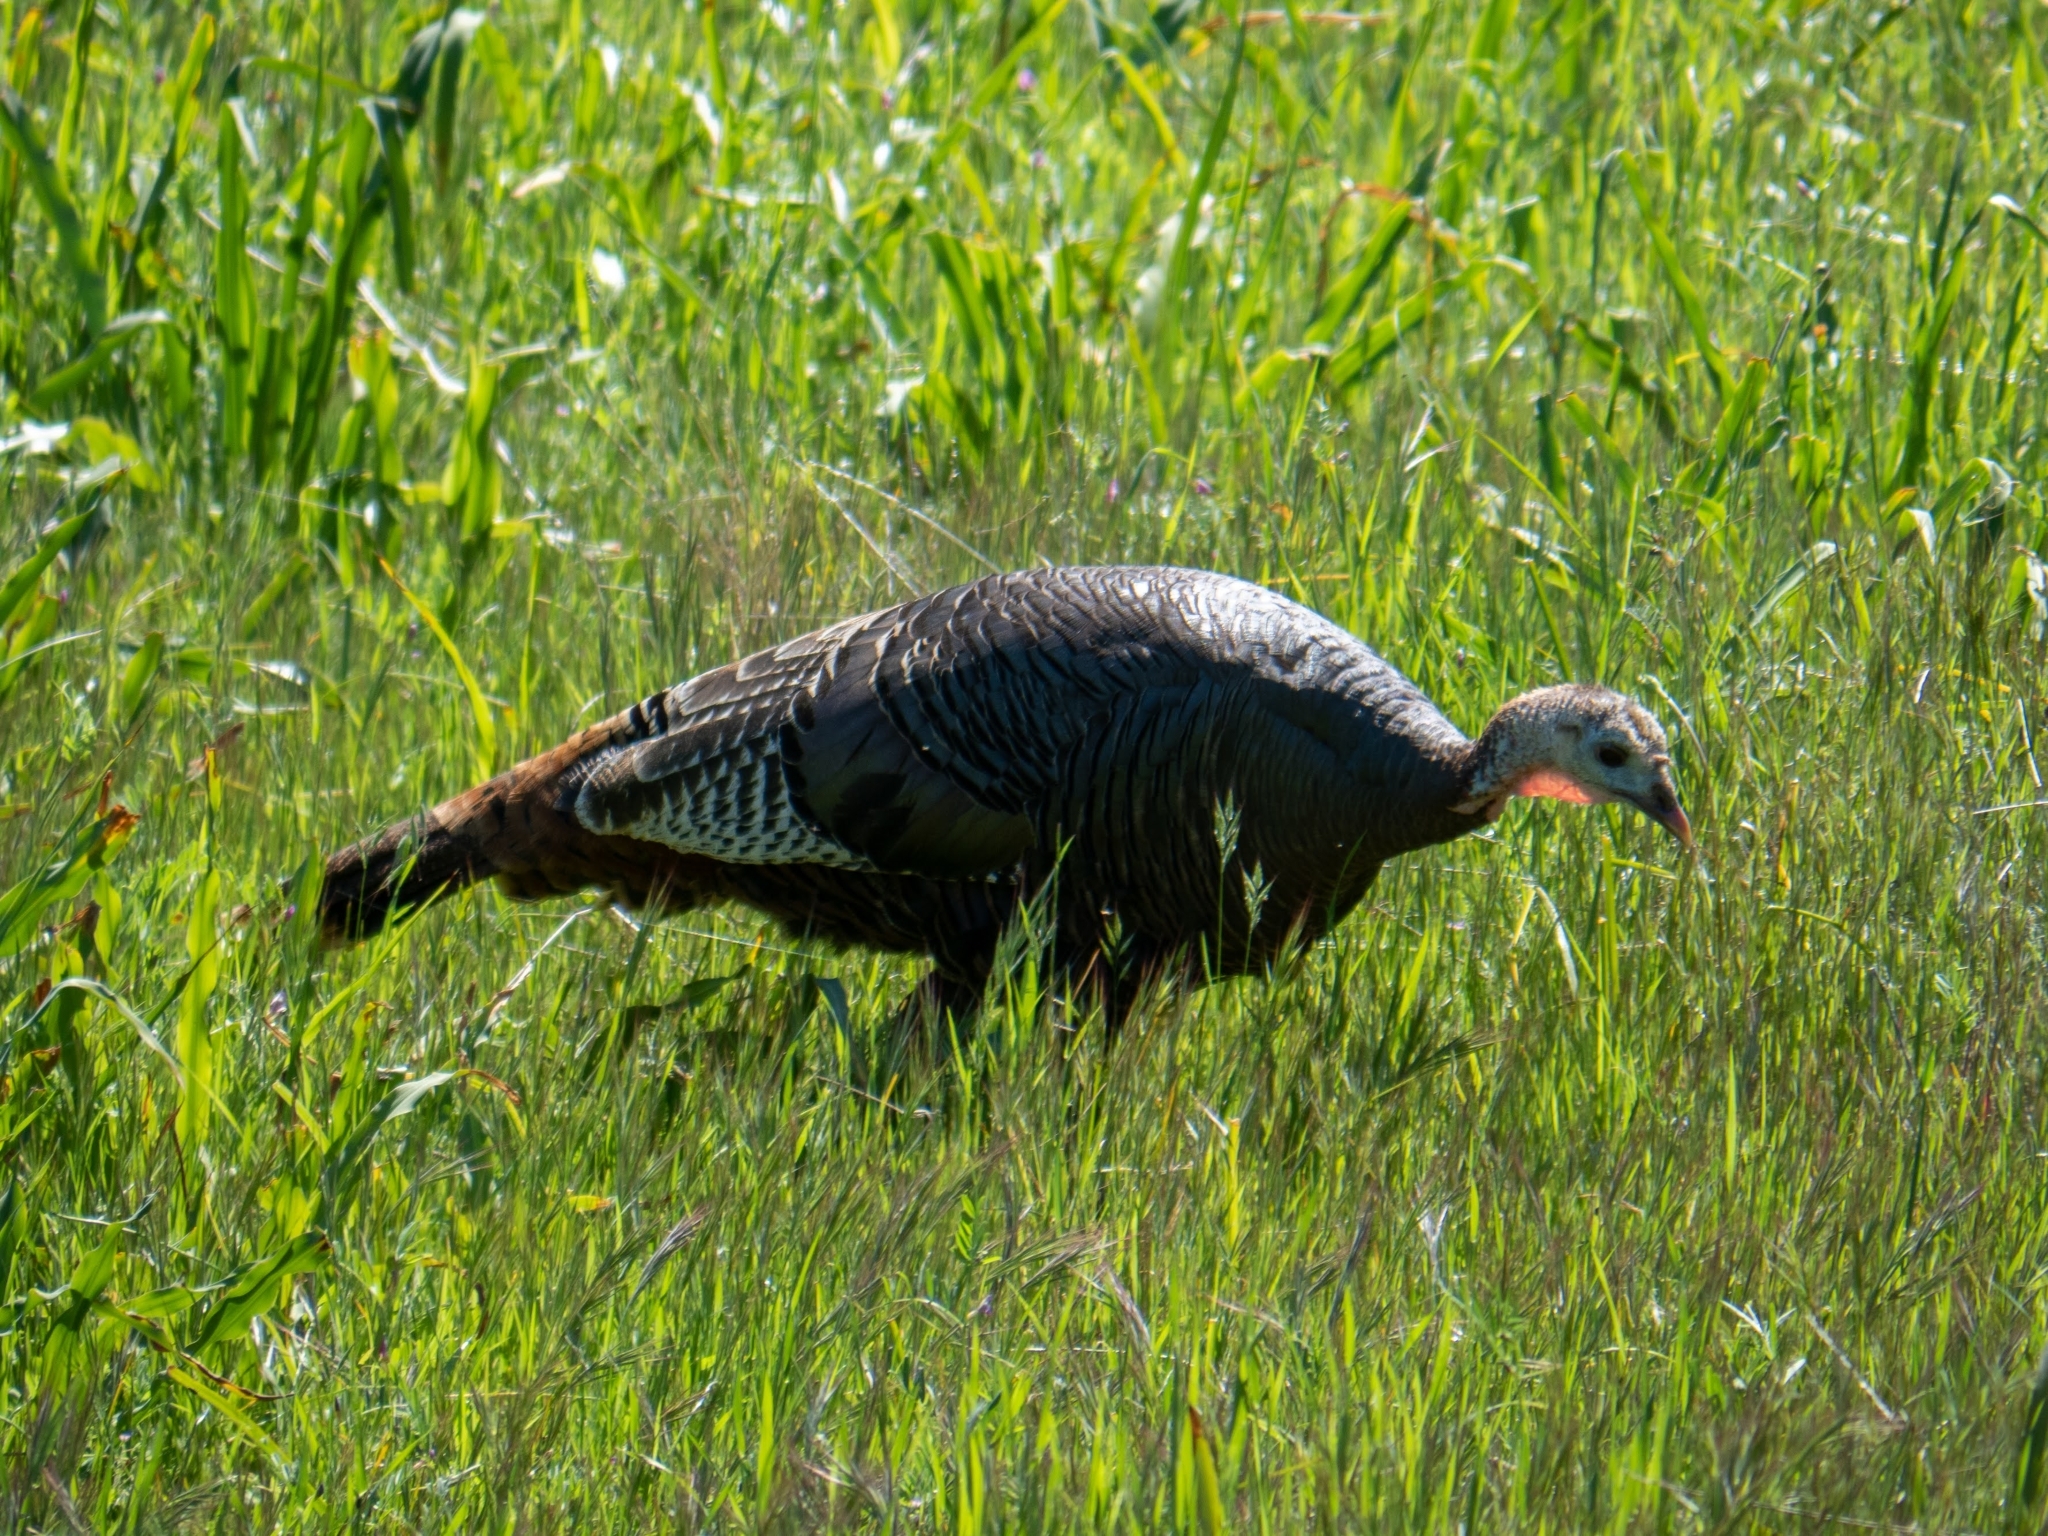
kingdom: Animalia
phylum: Chordata
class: Aves
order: Galliformes
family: Phasianidae
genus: Meleagris
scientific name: Meleagris gallopavo
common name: Wild turkey
